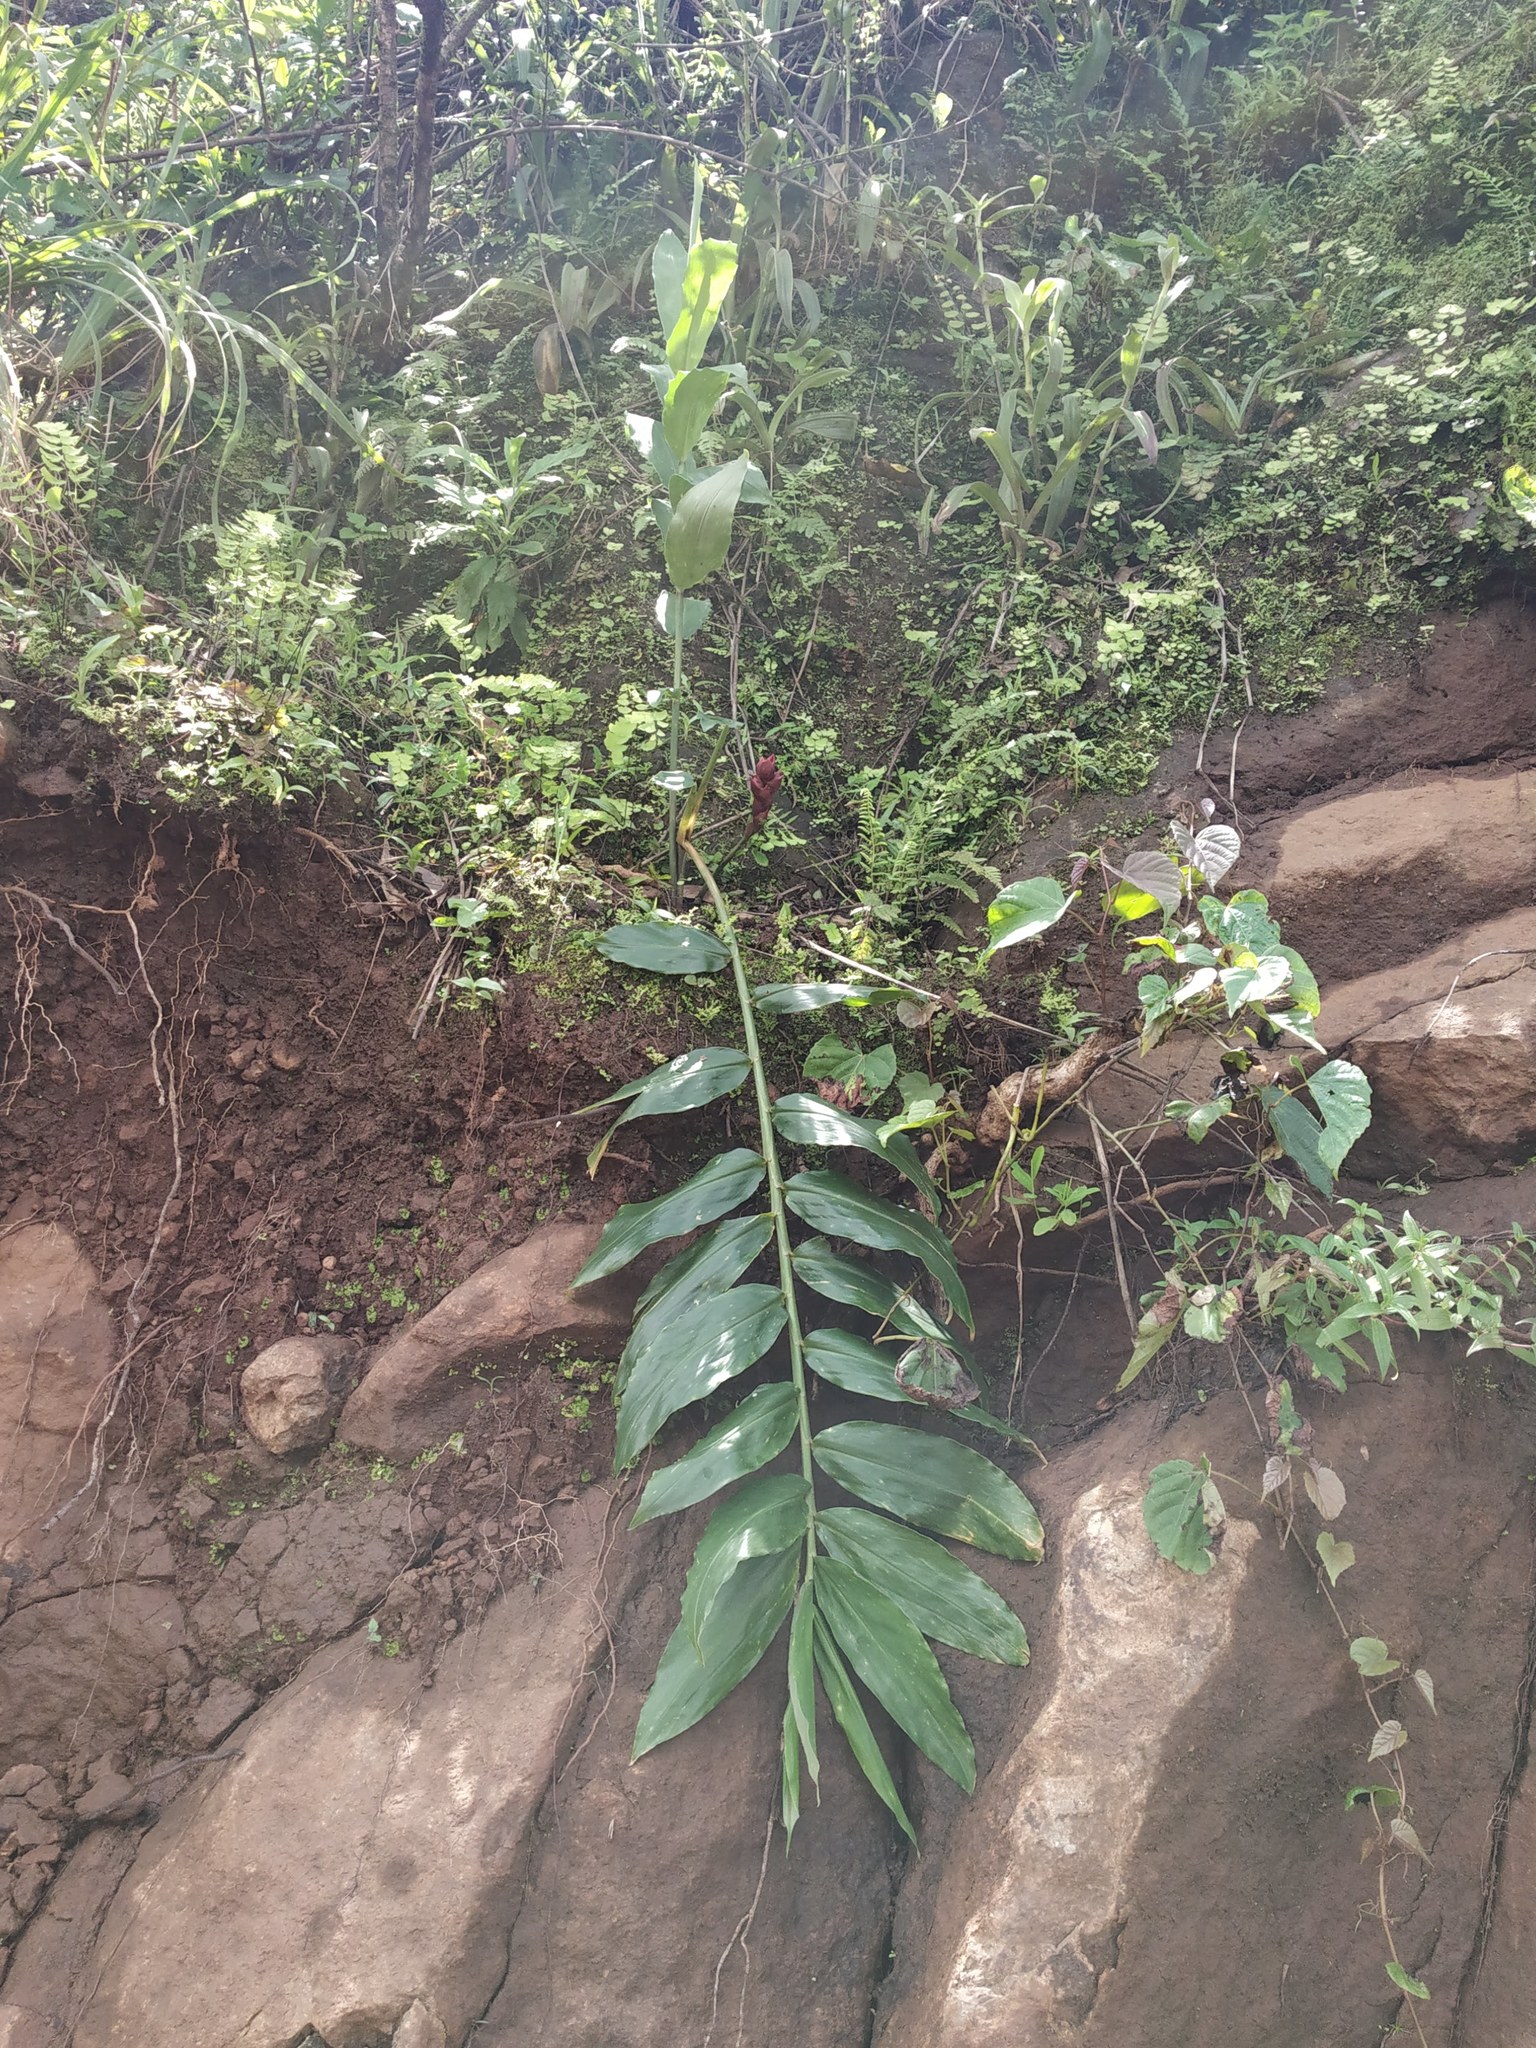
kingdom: Plantae
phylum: Tracheophyta
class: Liliopsida
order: Zingiberales
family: Zingiberaceae
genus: Zingiber
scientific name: Zingiber anamalayanum
